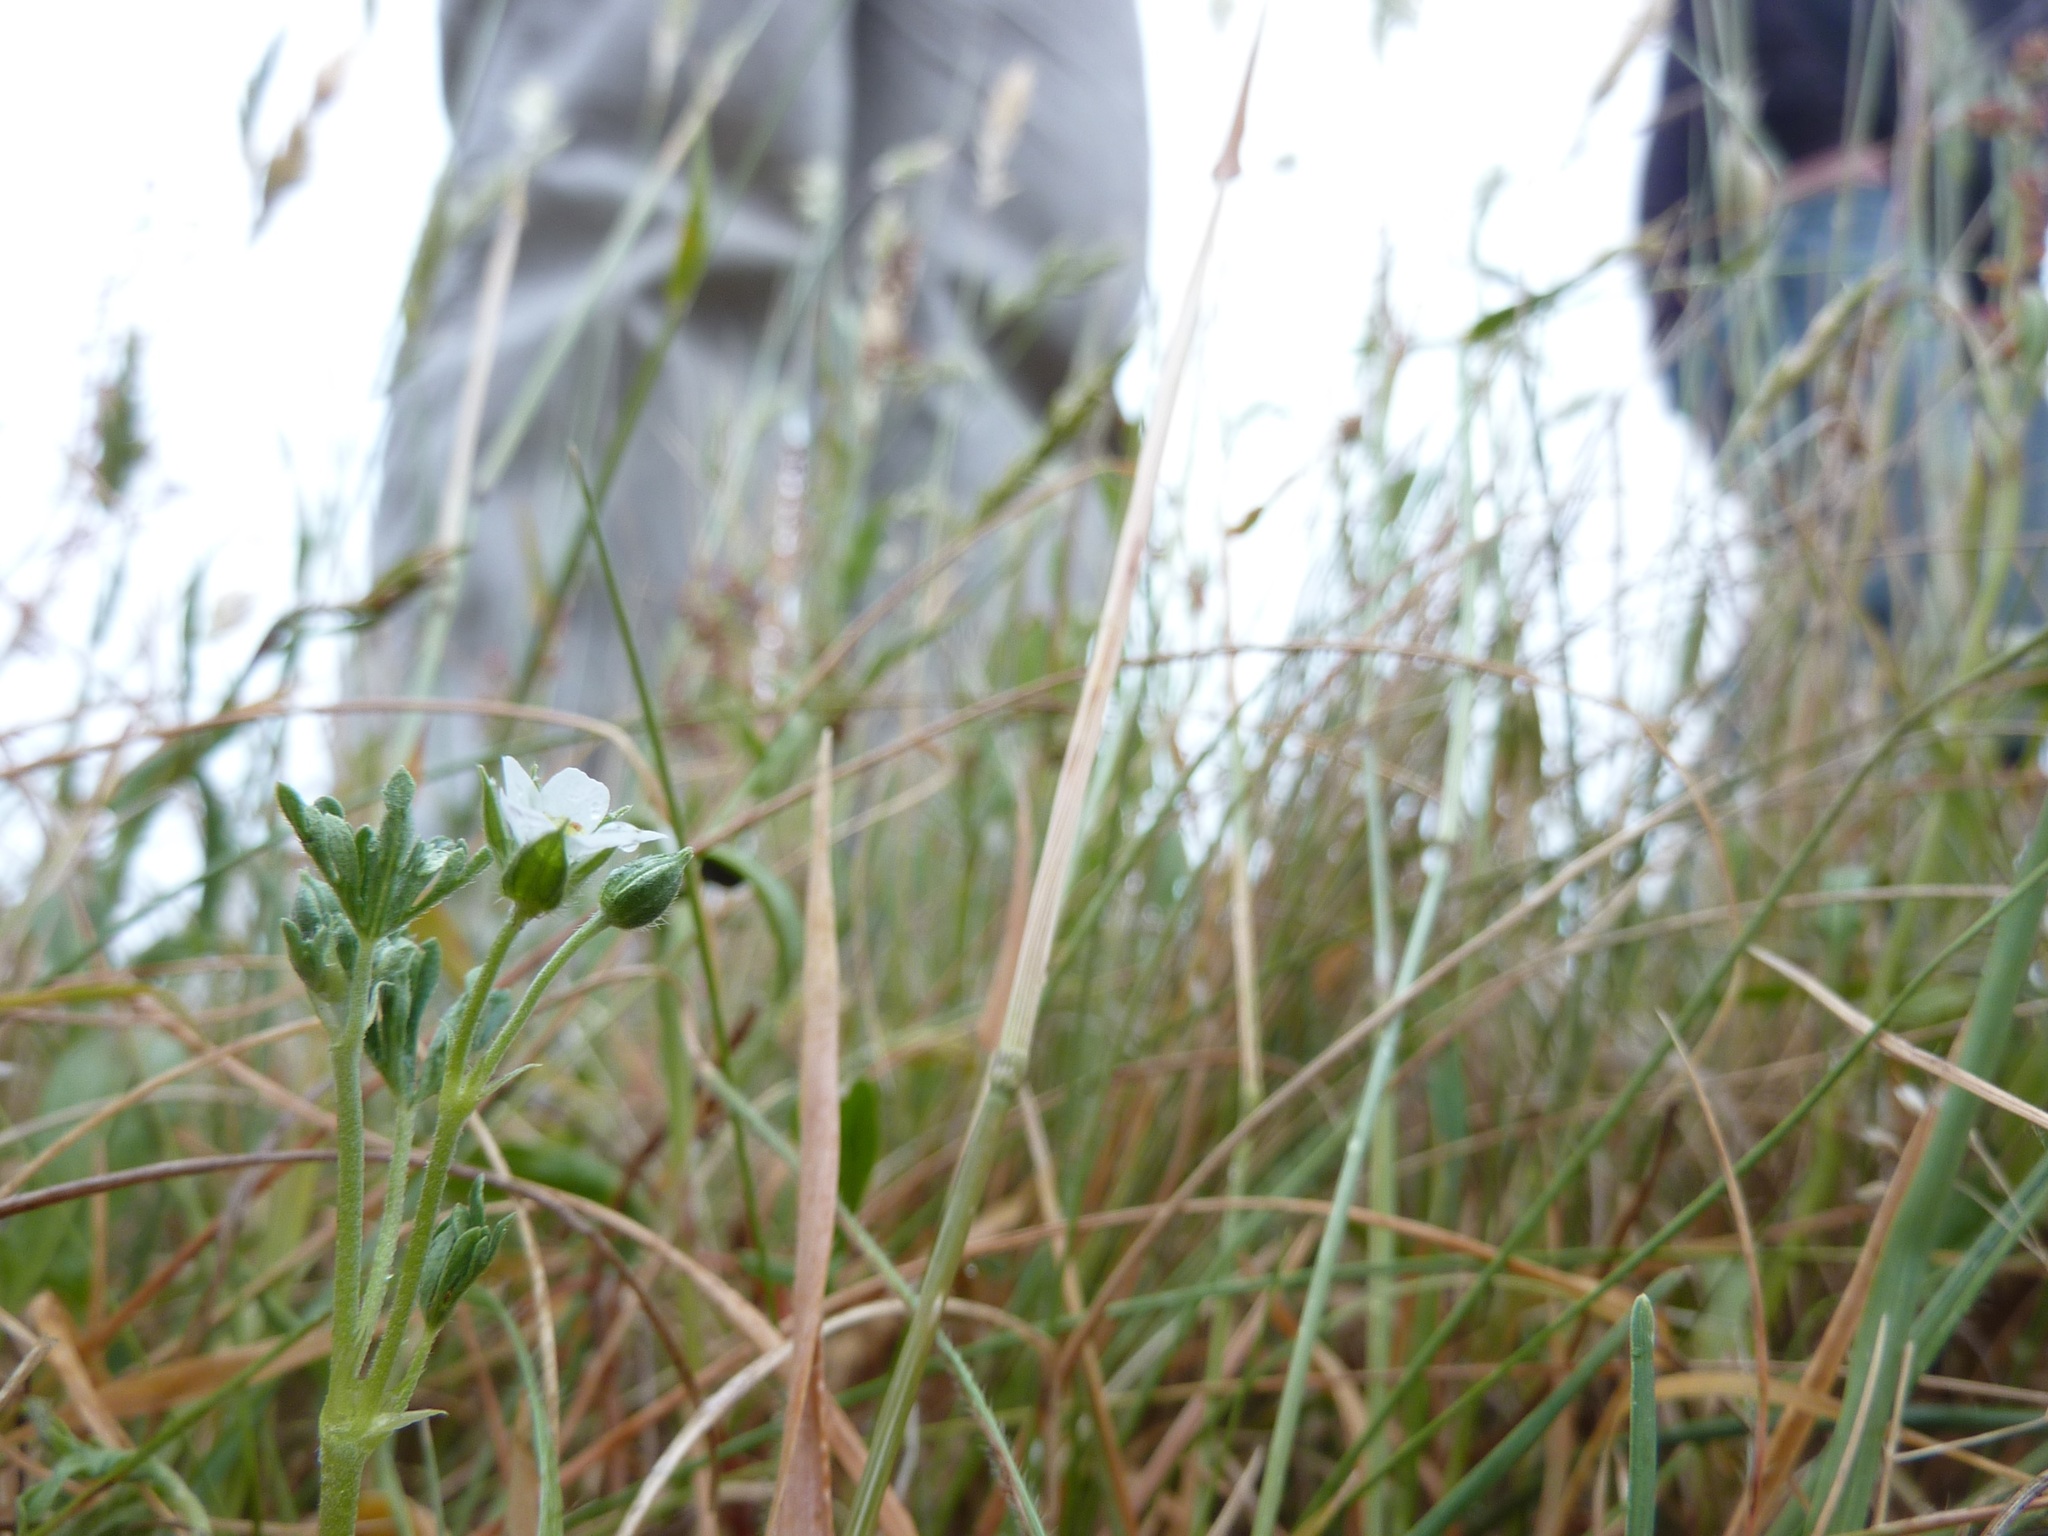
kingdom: Plantae
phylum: Tracheophyta
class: Magnoliopsida
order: Geraniales
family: Geraniaceae
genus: Geranium
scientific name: Geranium retrorsum
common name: New zealand geranium
